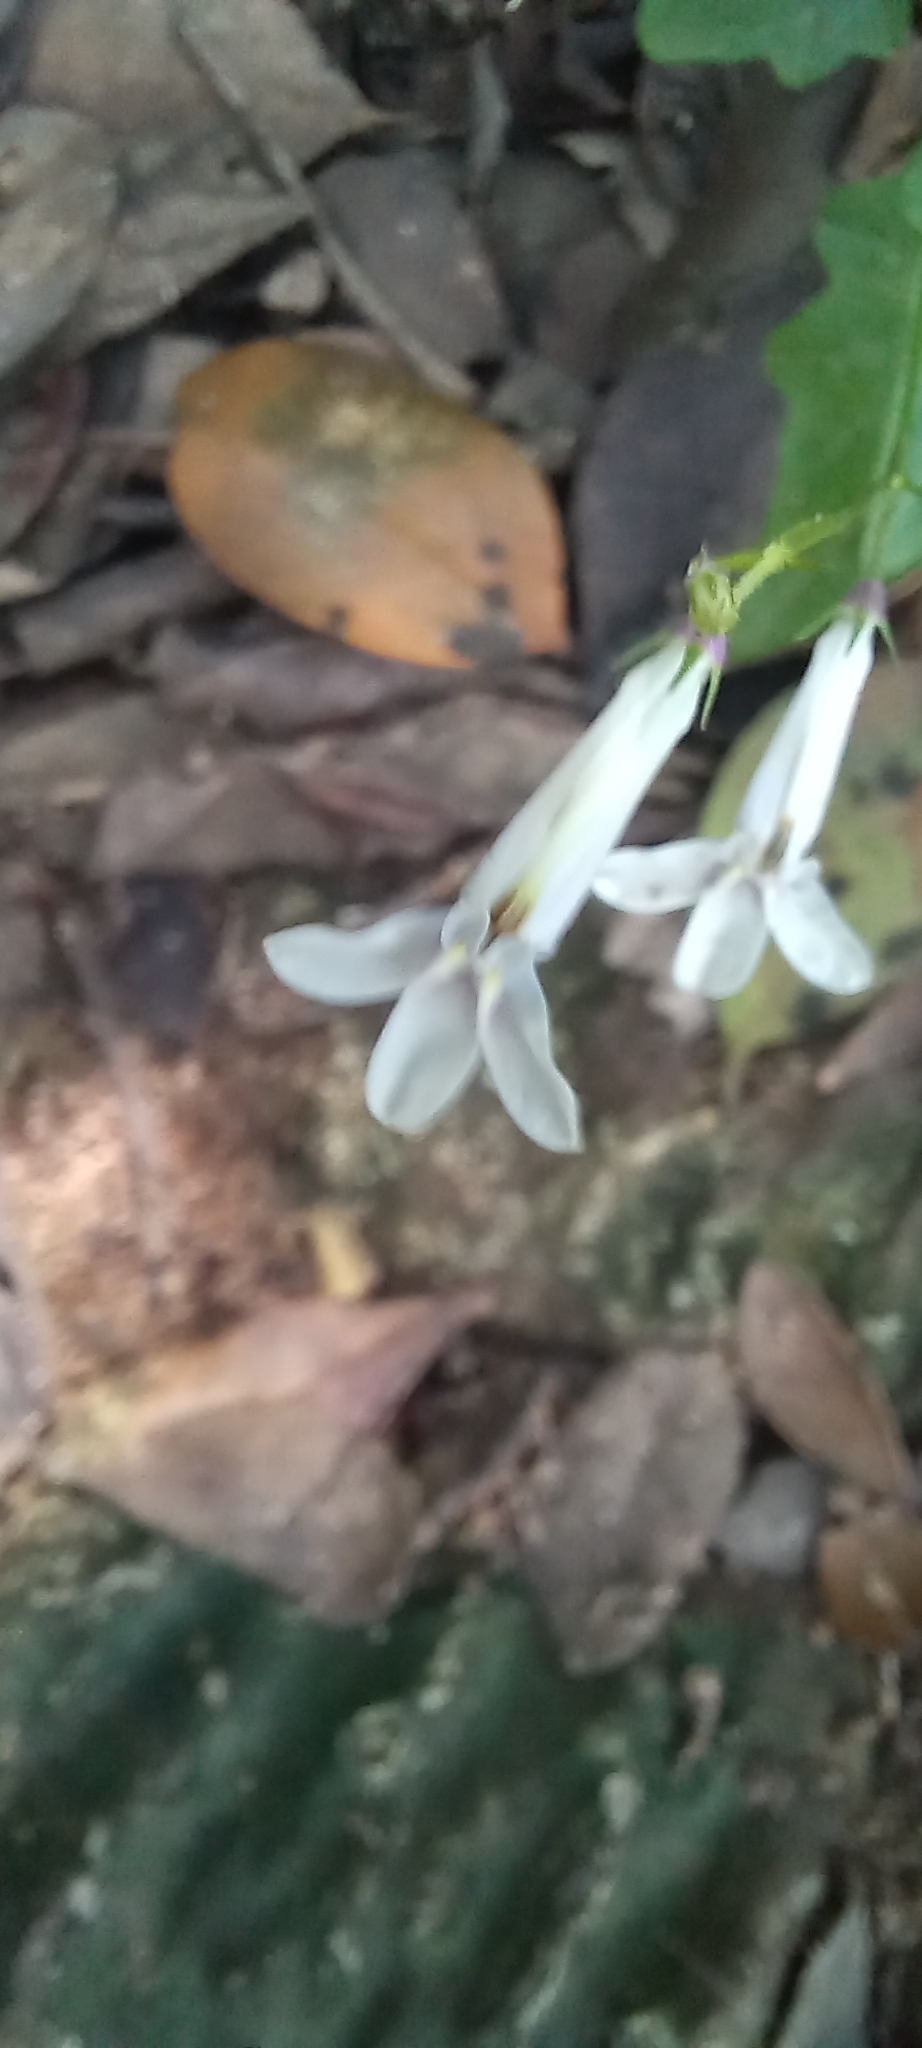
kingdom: Plantae
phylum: Tracheophyta
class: Magnoliopsida
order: Asterales
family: Campanulaceae
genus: Lobelia
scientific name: Lobelia pteropoda
